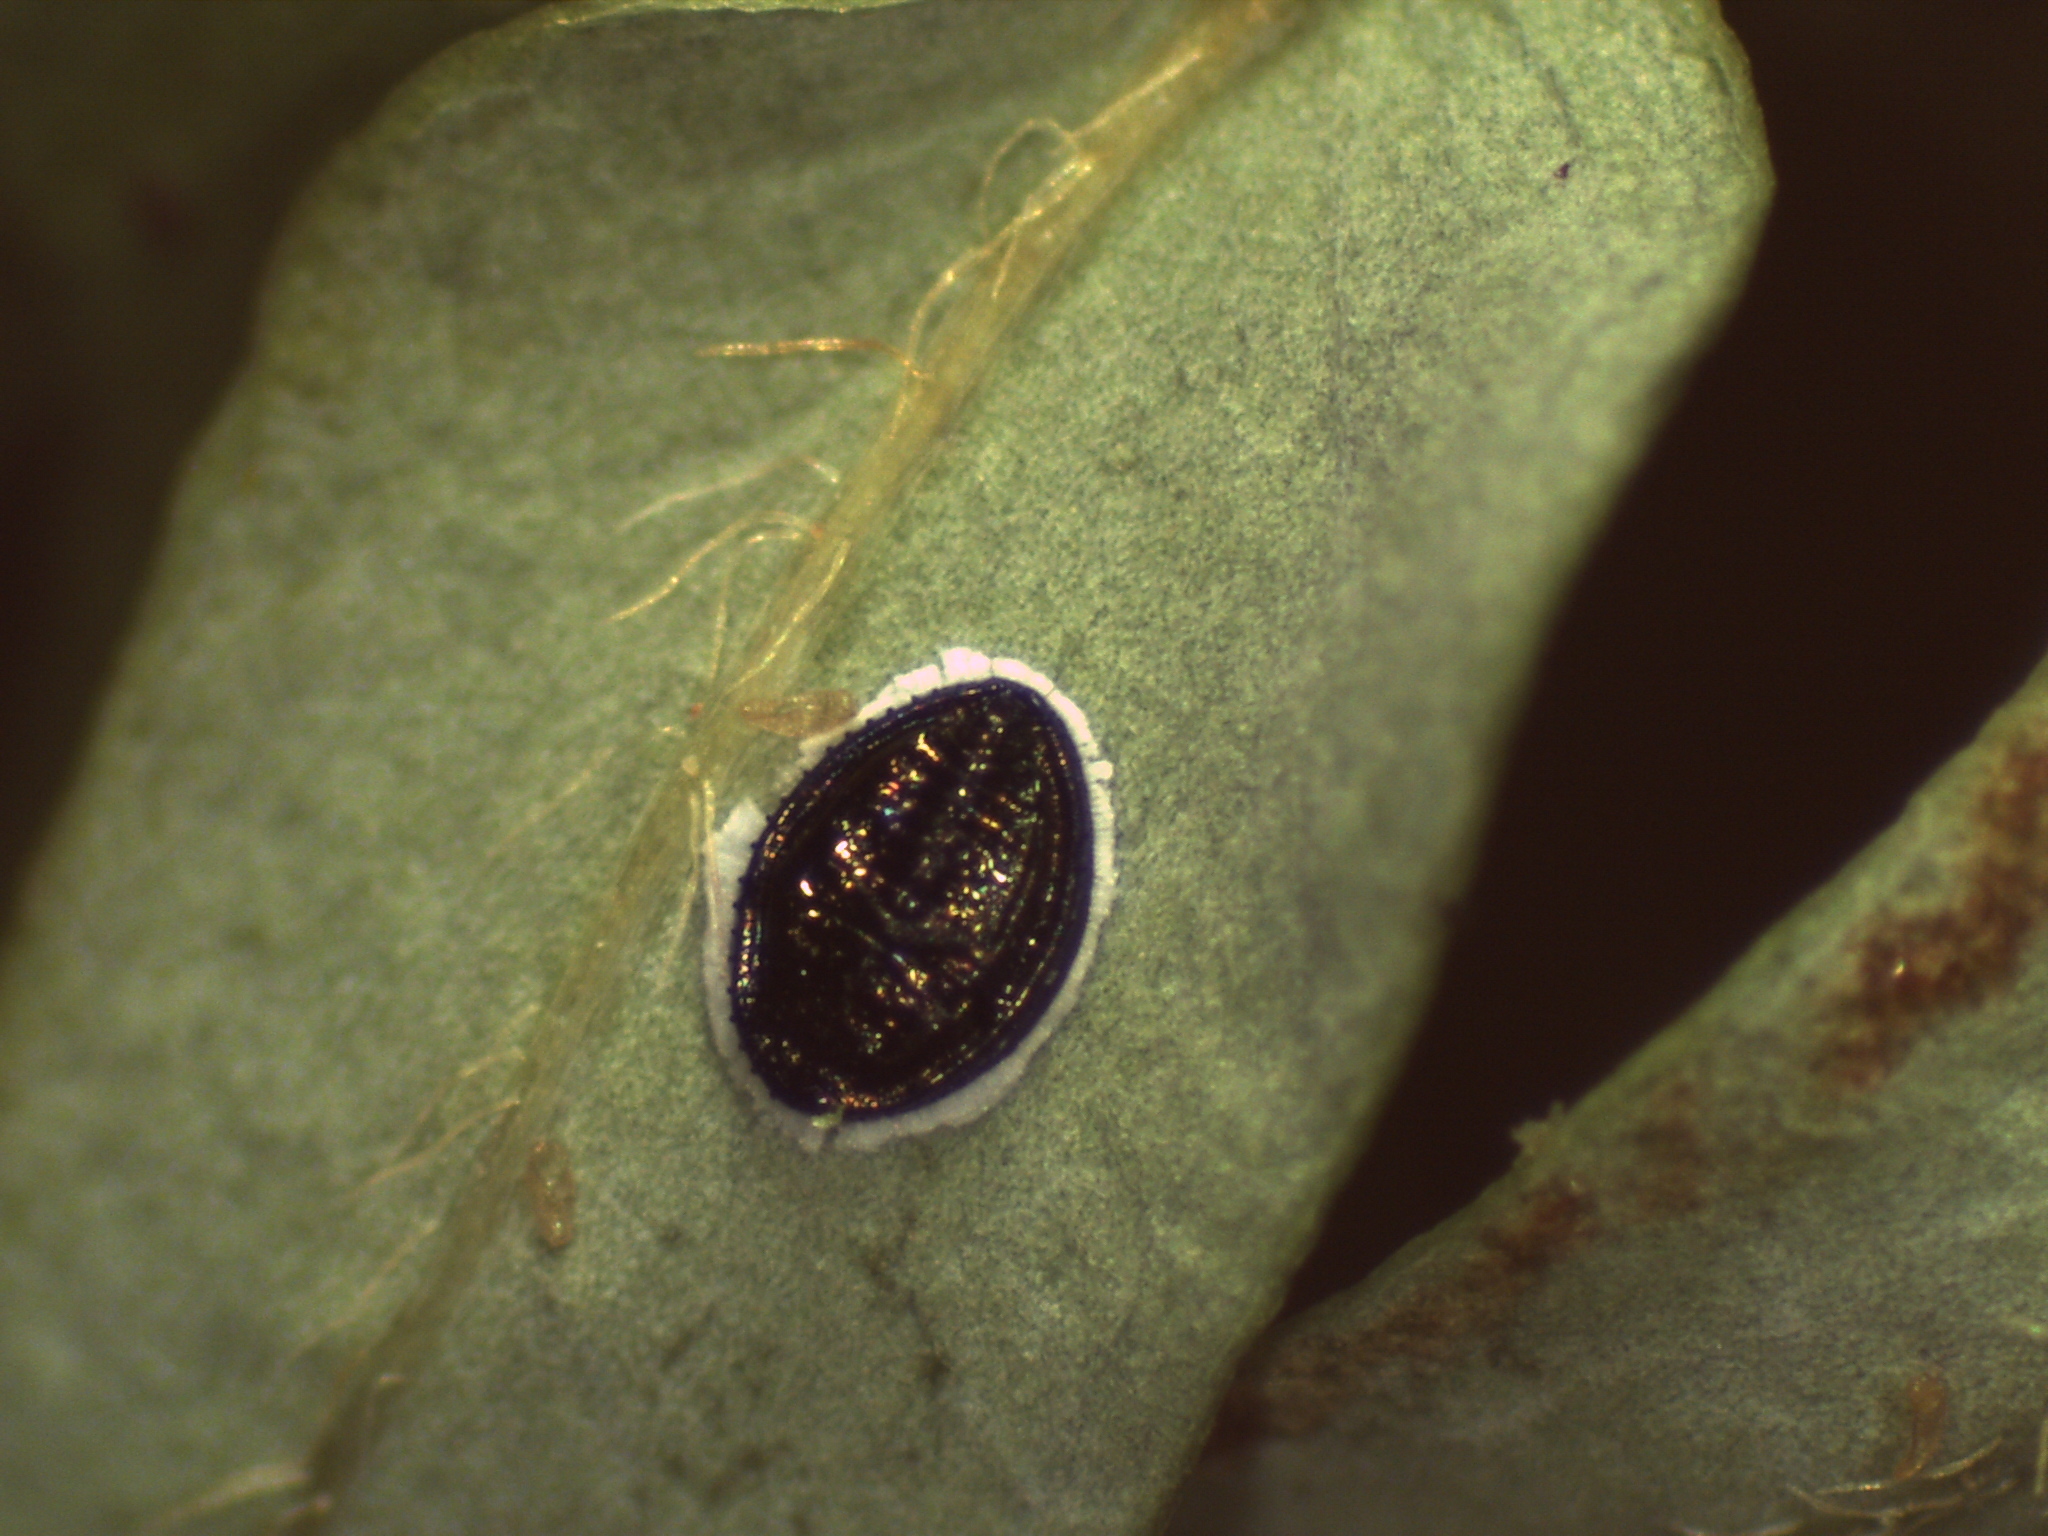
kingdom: Animalia
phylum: Arthropoda
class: Insecta
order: Hemiptera
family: Aleyrodidae
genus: Tetraleurodes
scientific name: Tetraleurodes acaciae
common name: Acacia whitefly
